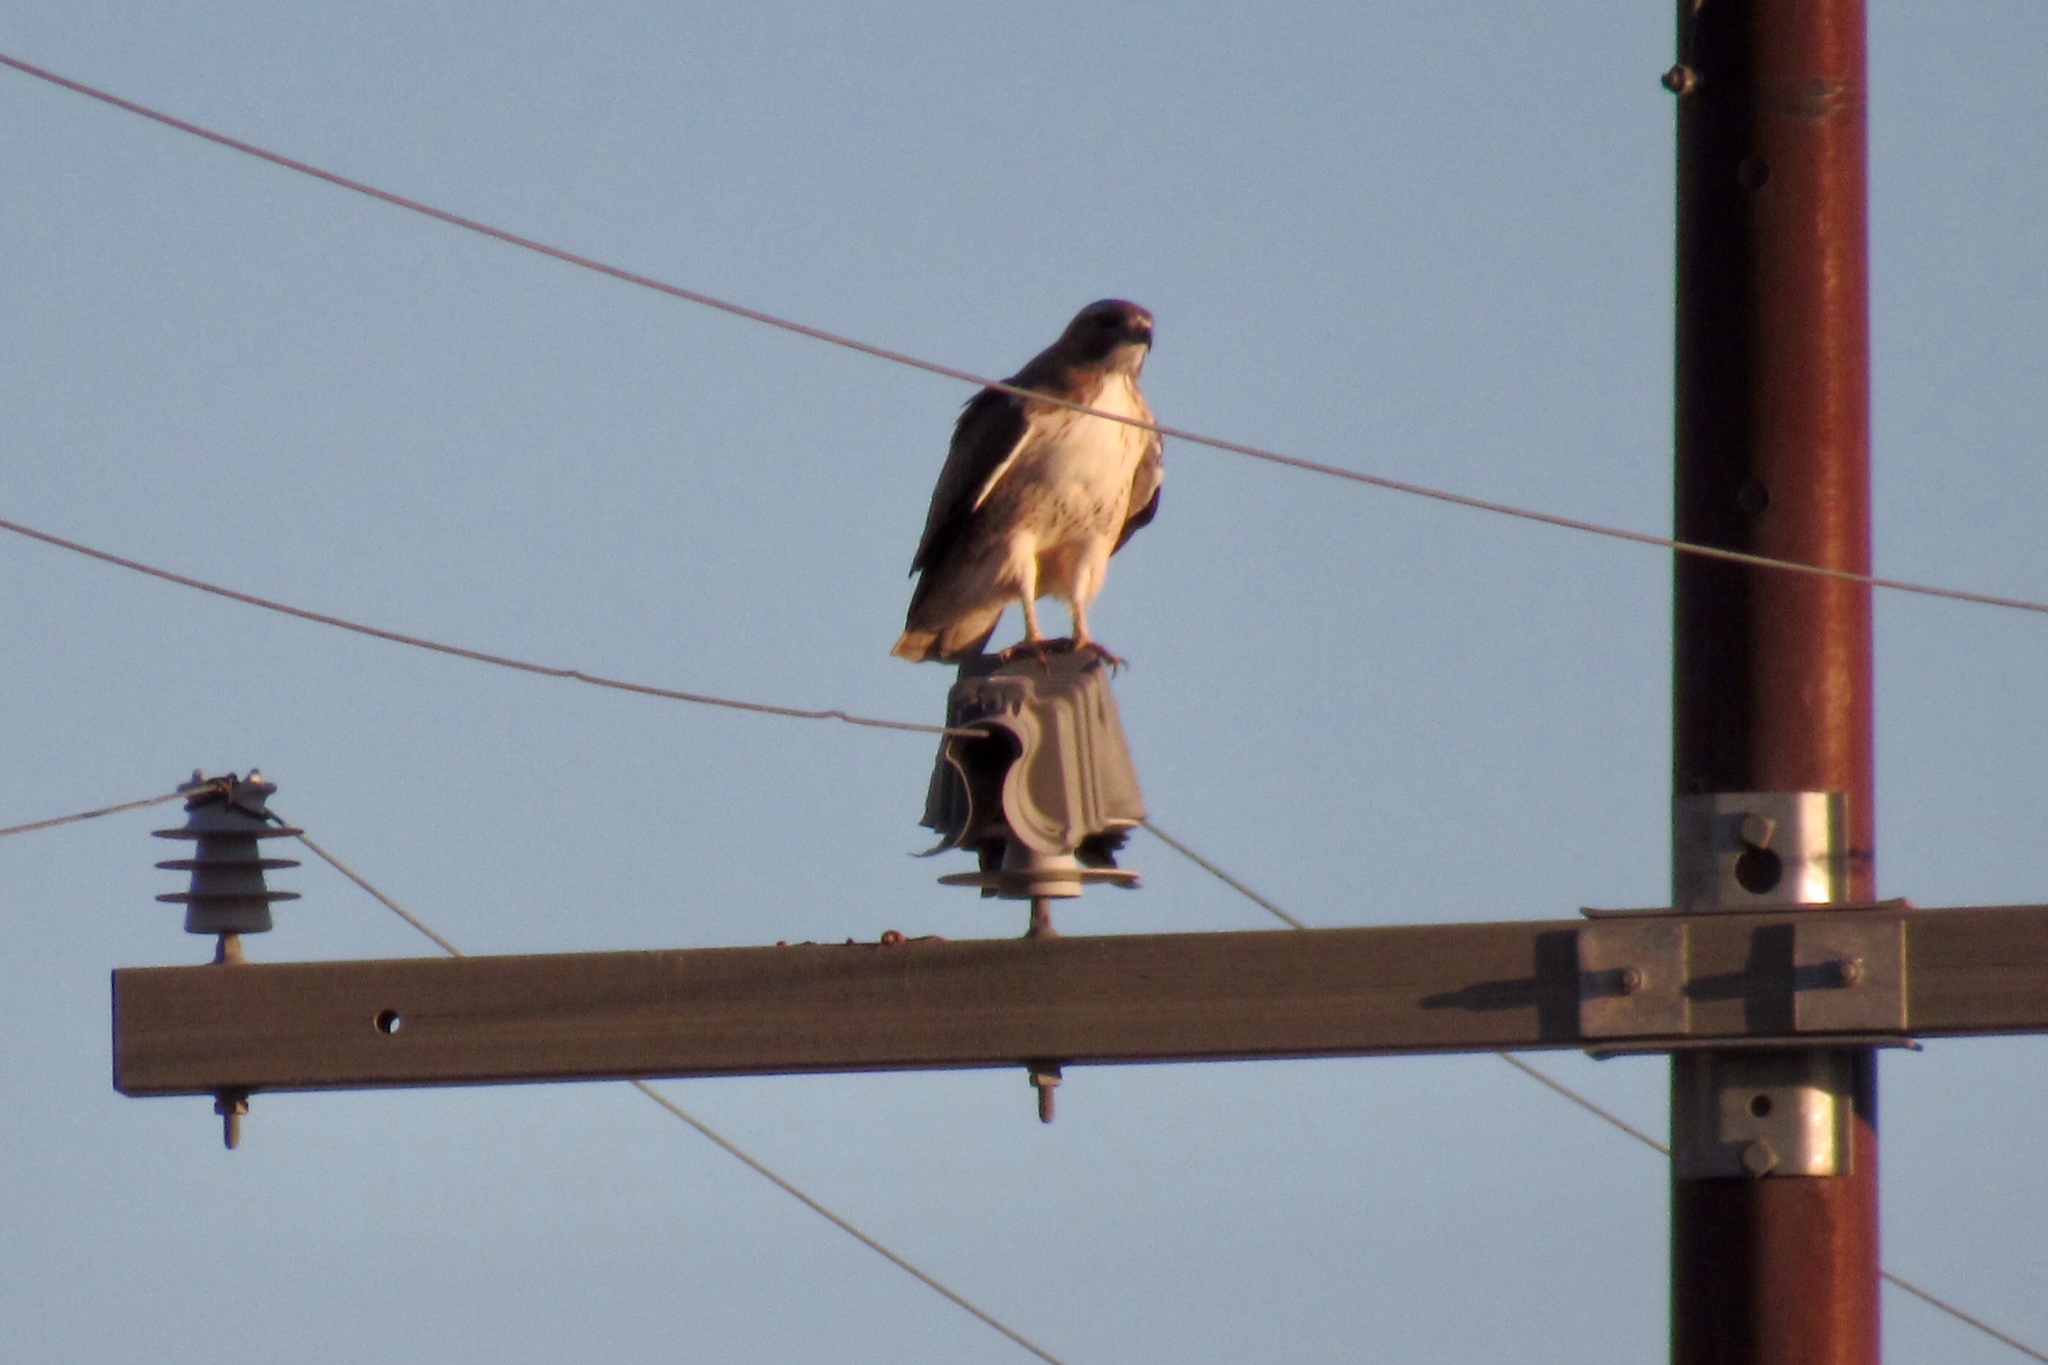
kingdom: Animalia
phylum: Chordata
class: Aves
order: Accipitriformes
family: Accipitridae
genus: Buteo
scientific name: Buteo jamaicensis
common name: Red-tailed hawk
